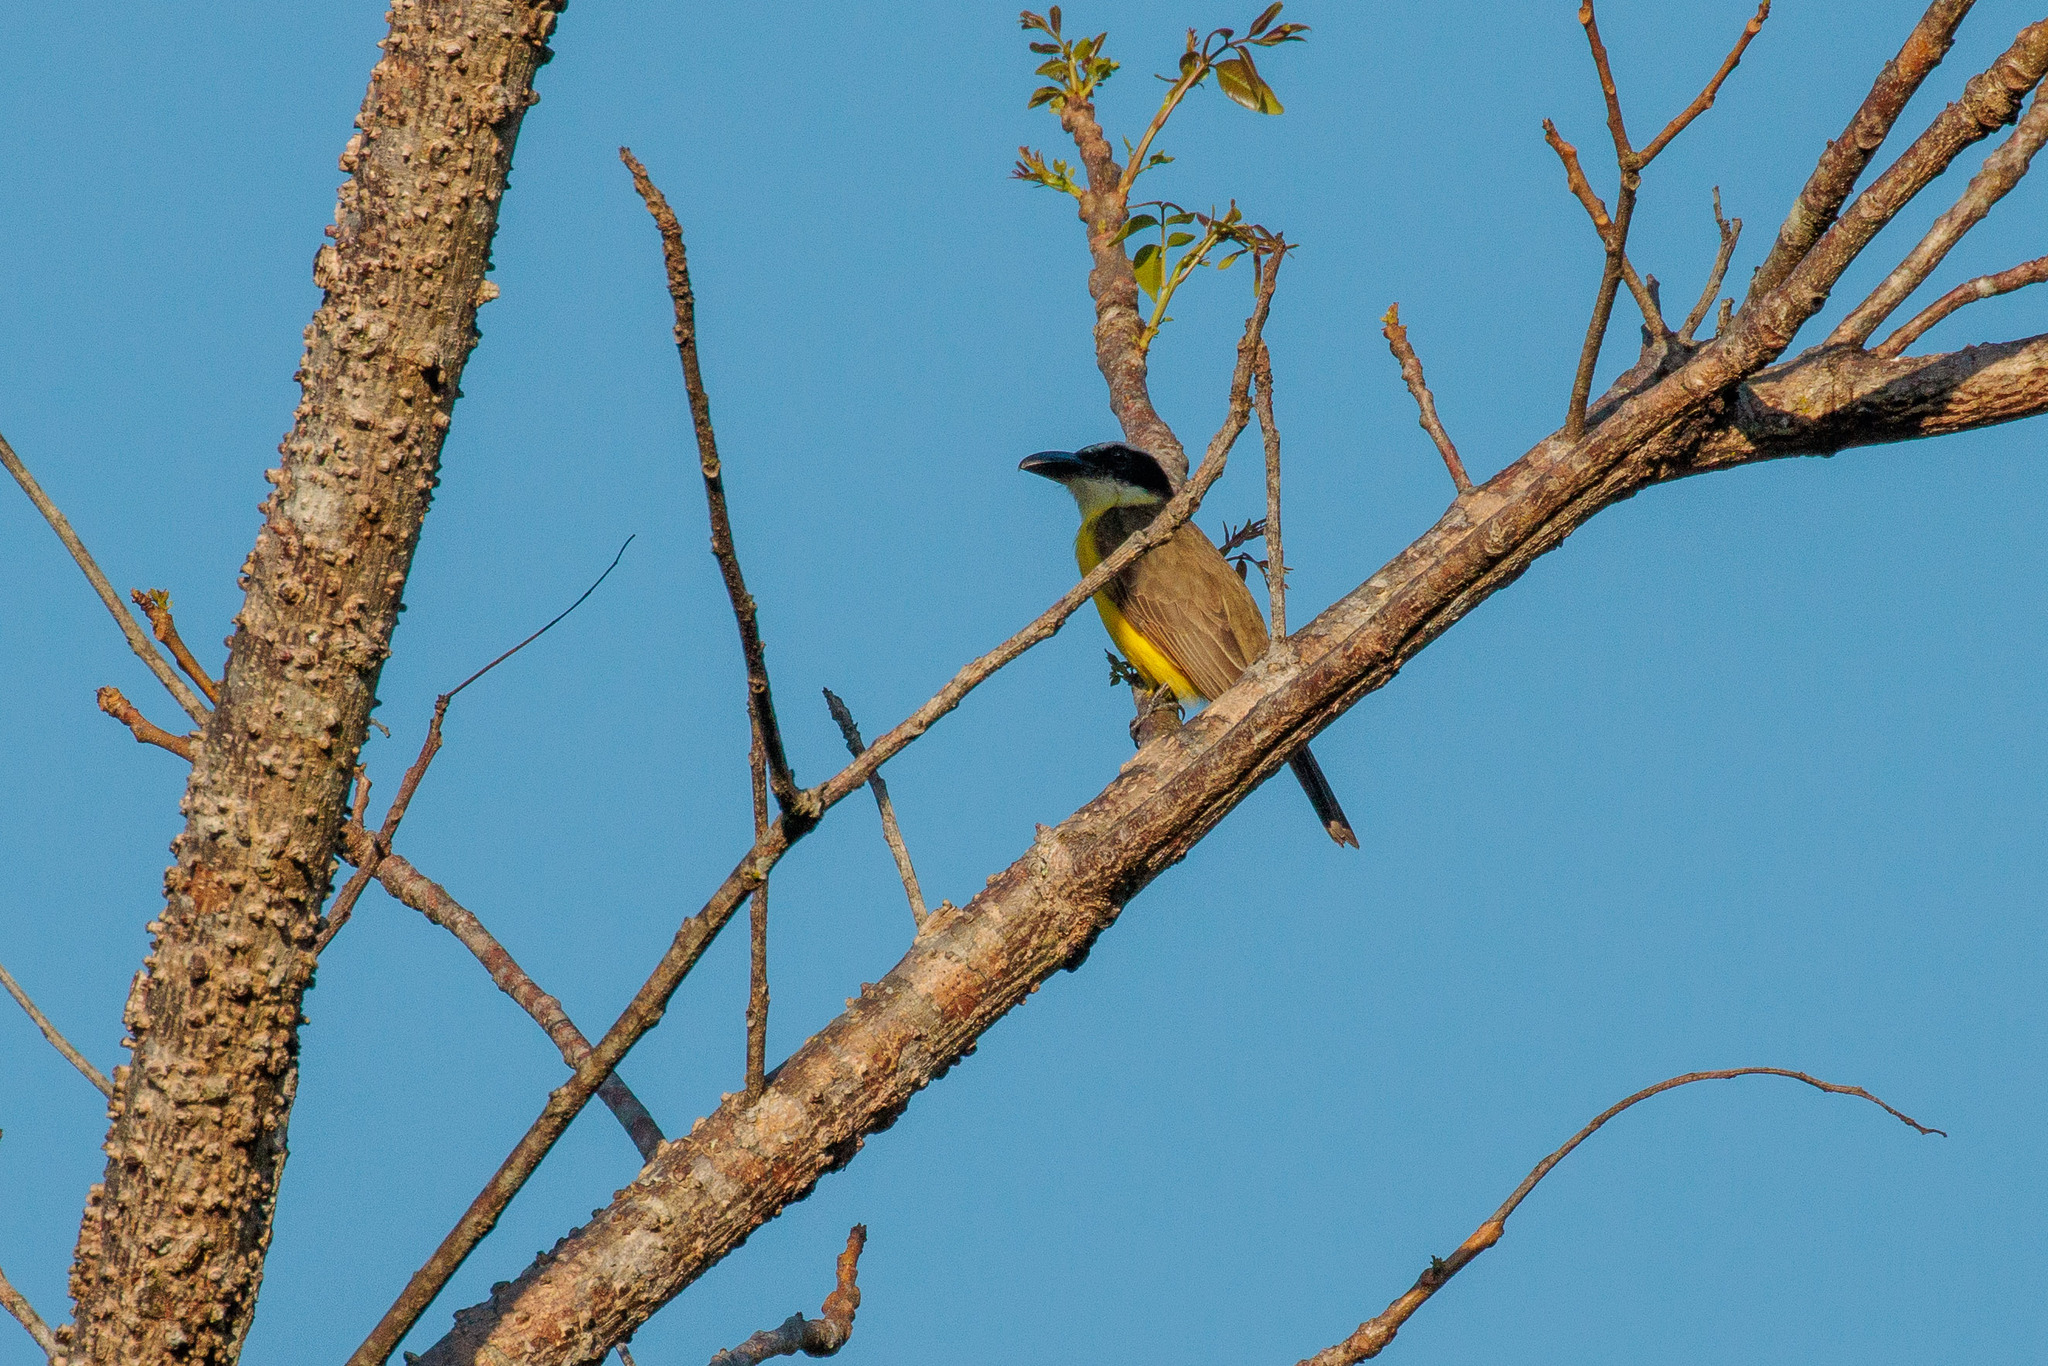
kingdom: Animalia
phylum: Chordata
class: Aves
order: Passeriformes
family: Tyrannidae
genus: Megarynchus
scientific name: Megarynchus pitangua
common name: Boat-billed flycatcher
